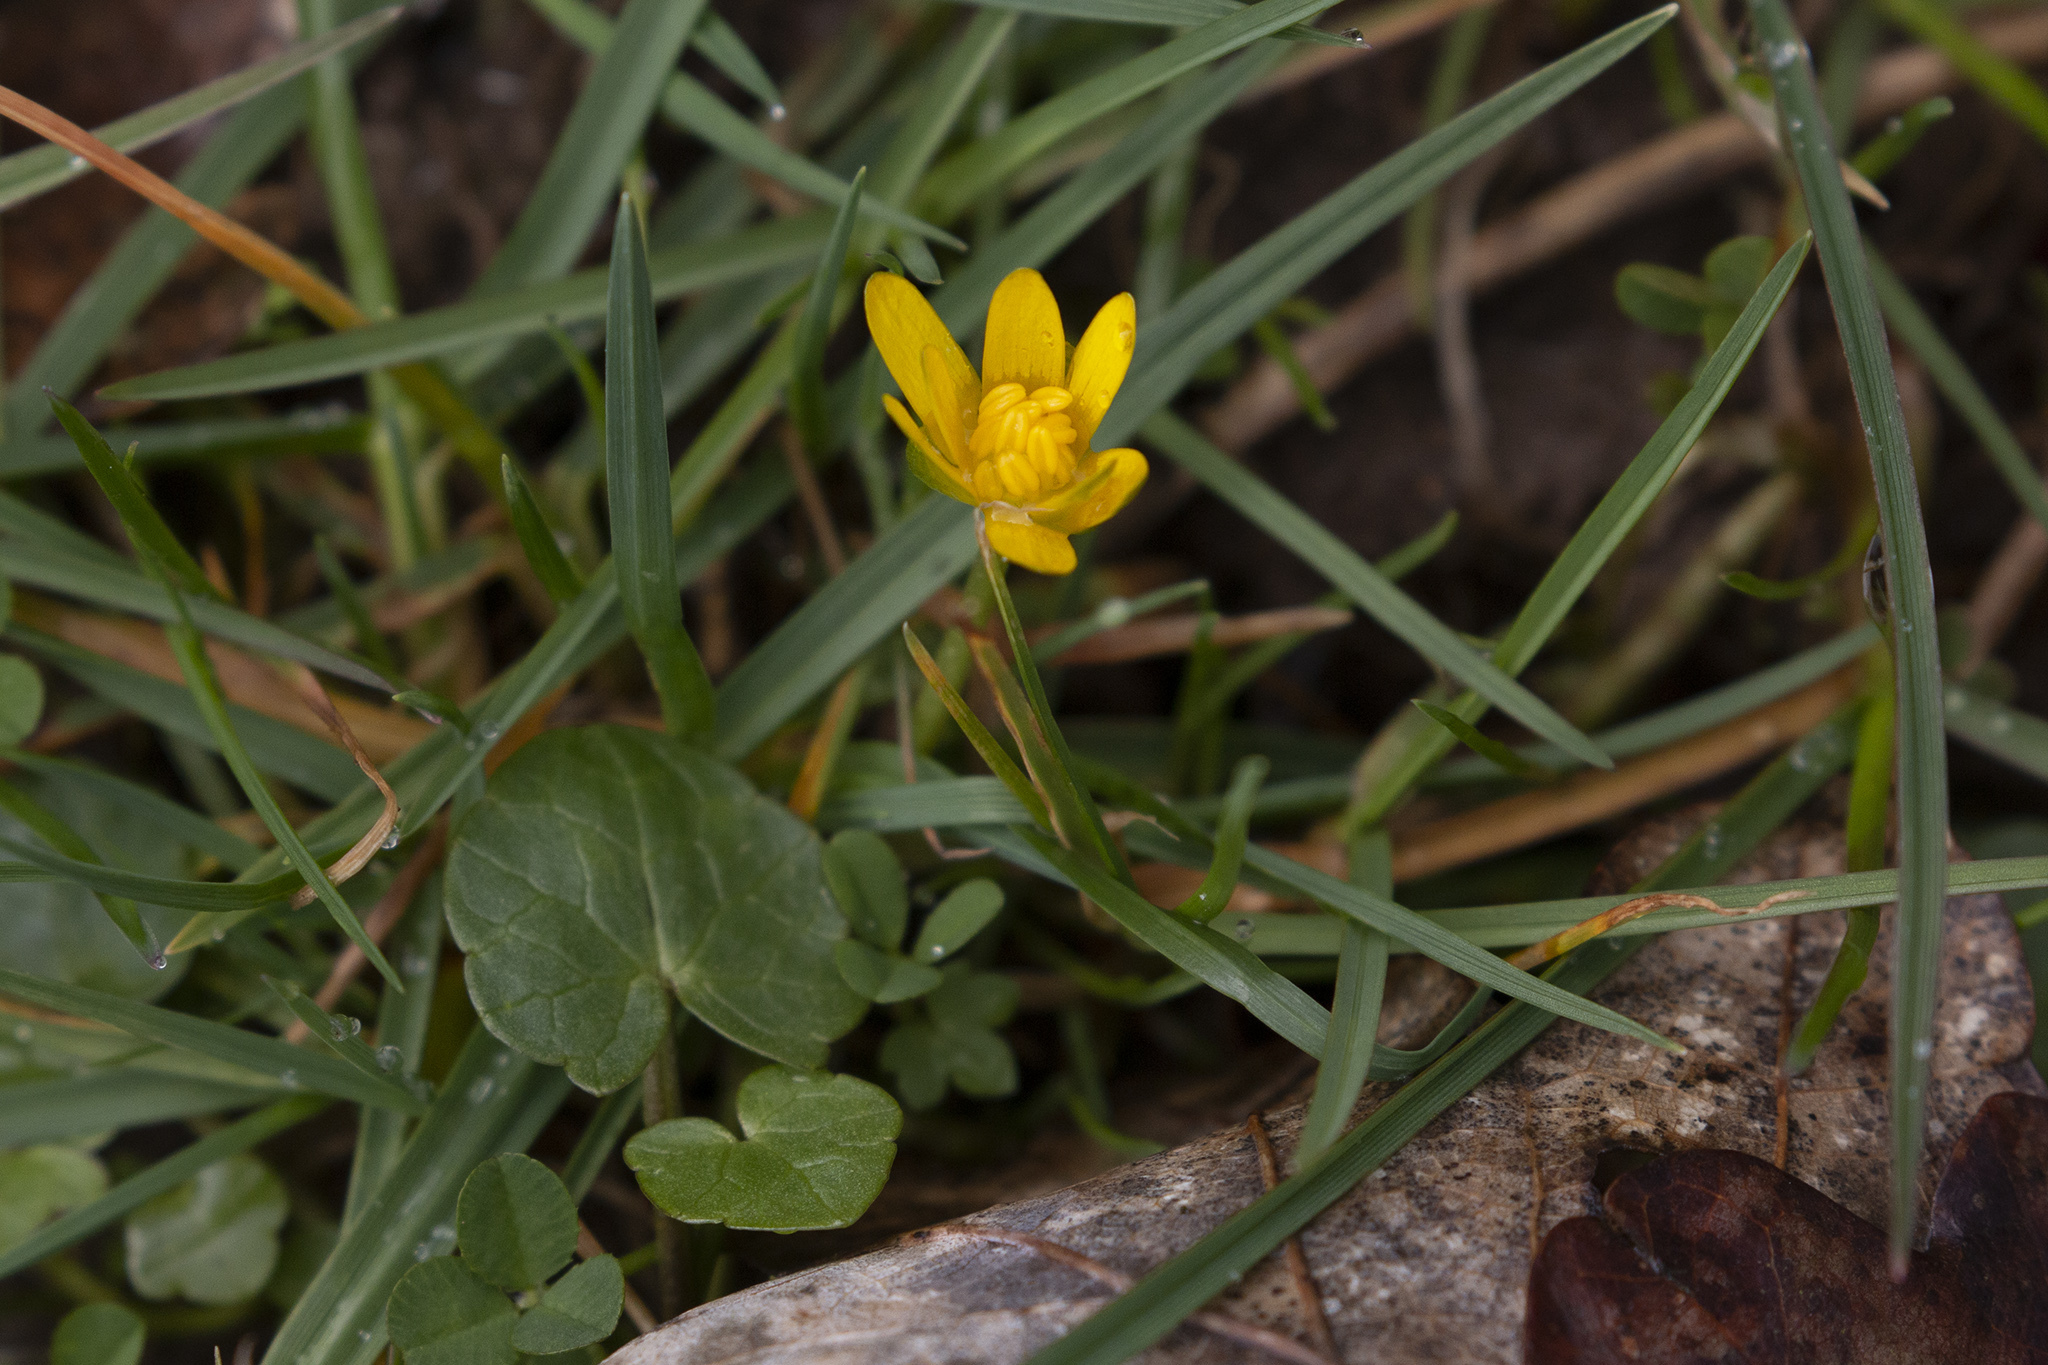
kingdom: Plantae
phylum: Tracheophyta
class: Magnoliopsida
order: Ranunculales
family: Ranunculaceae
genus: Ficaria
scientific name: Ficaria verna
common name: Lesser celandine
